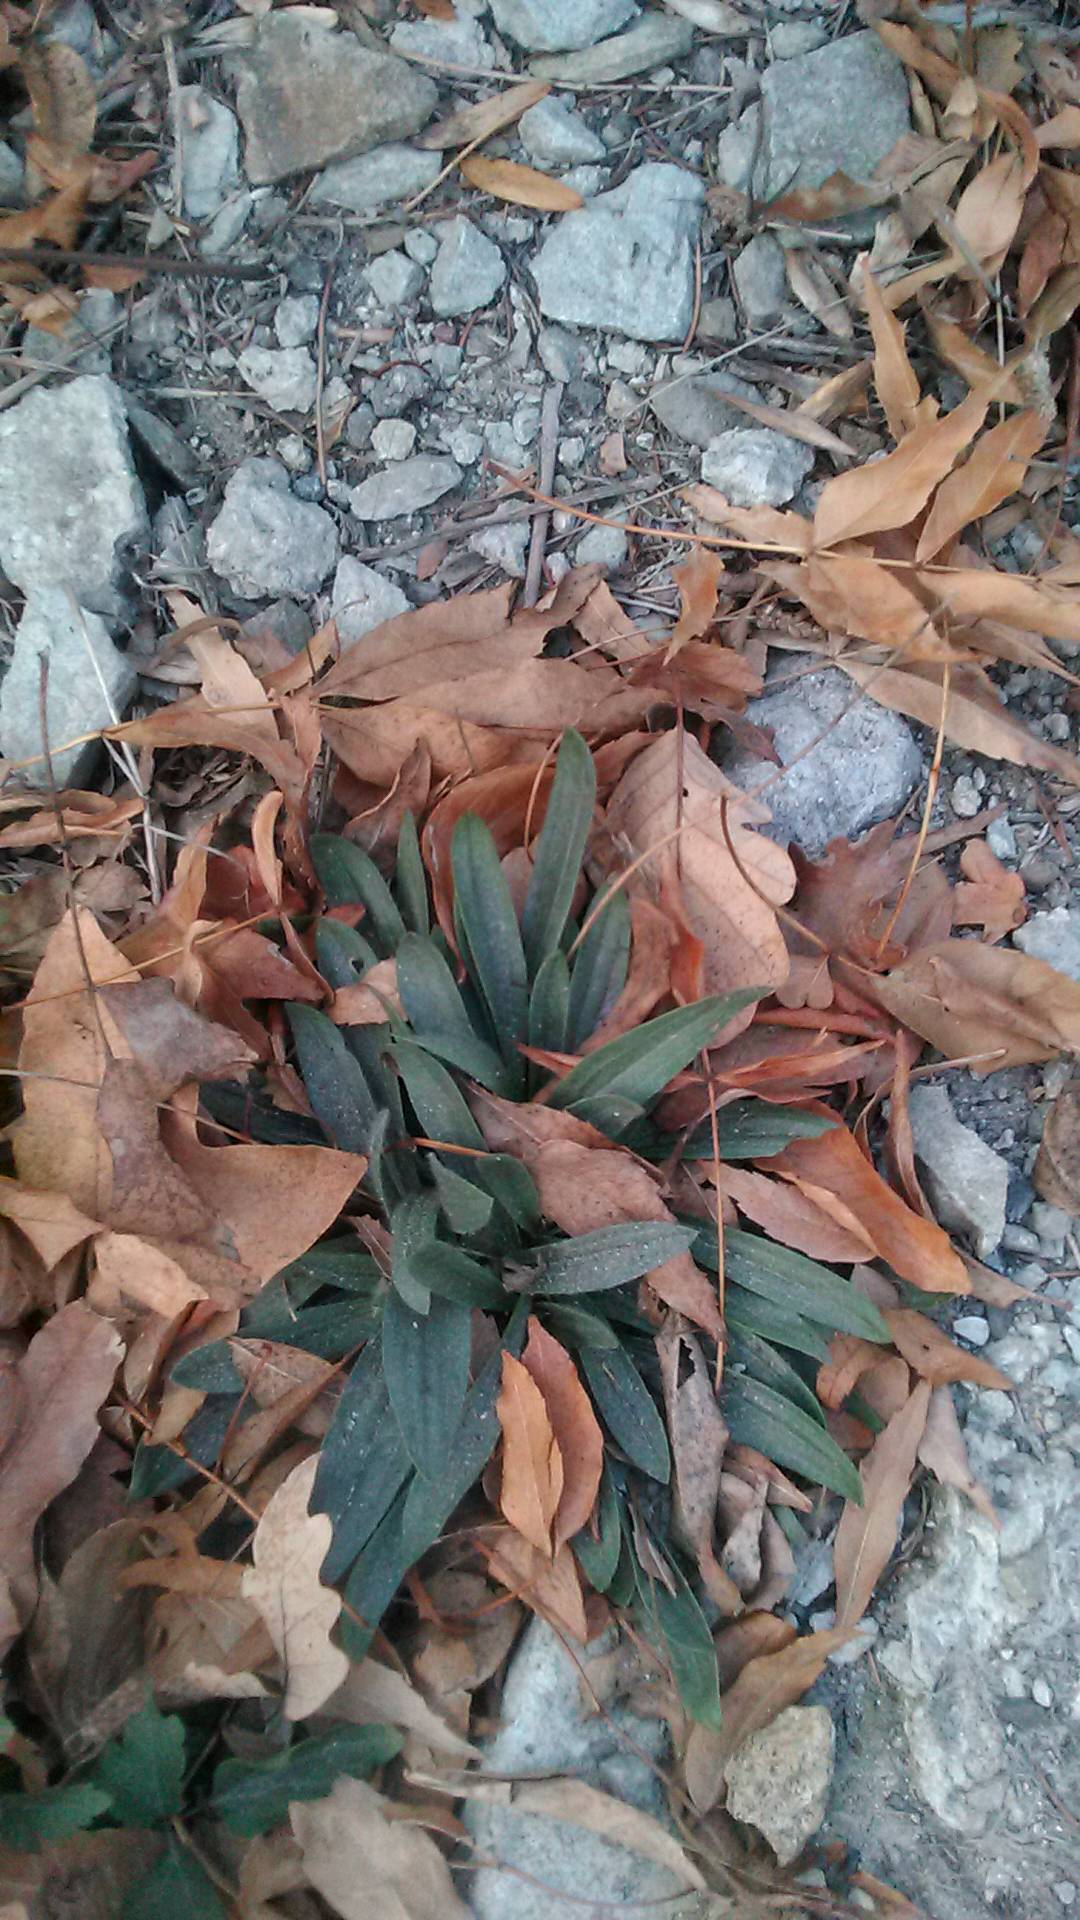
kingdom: Plantae
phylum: Tracheophyta
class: Magnoliopsida
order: Lamiales
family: Plantaginaceae
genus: Plantago
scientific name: Plantago lanceolata
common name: Ribwort plantain
